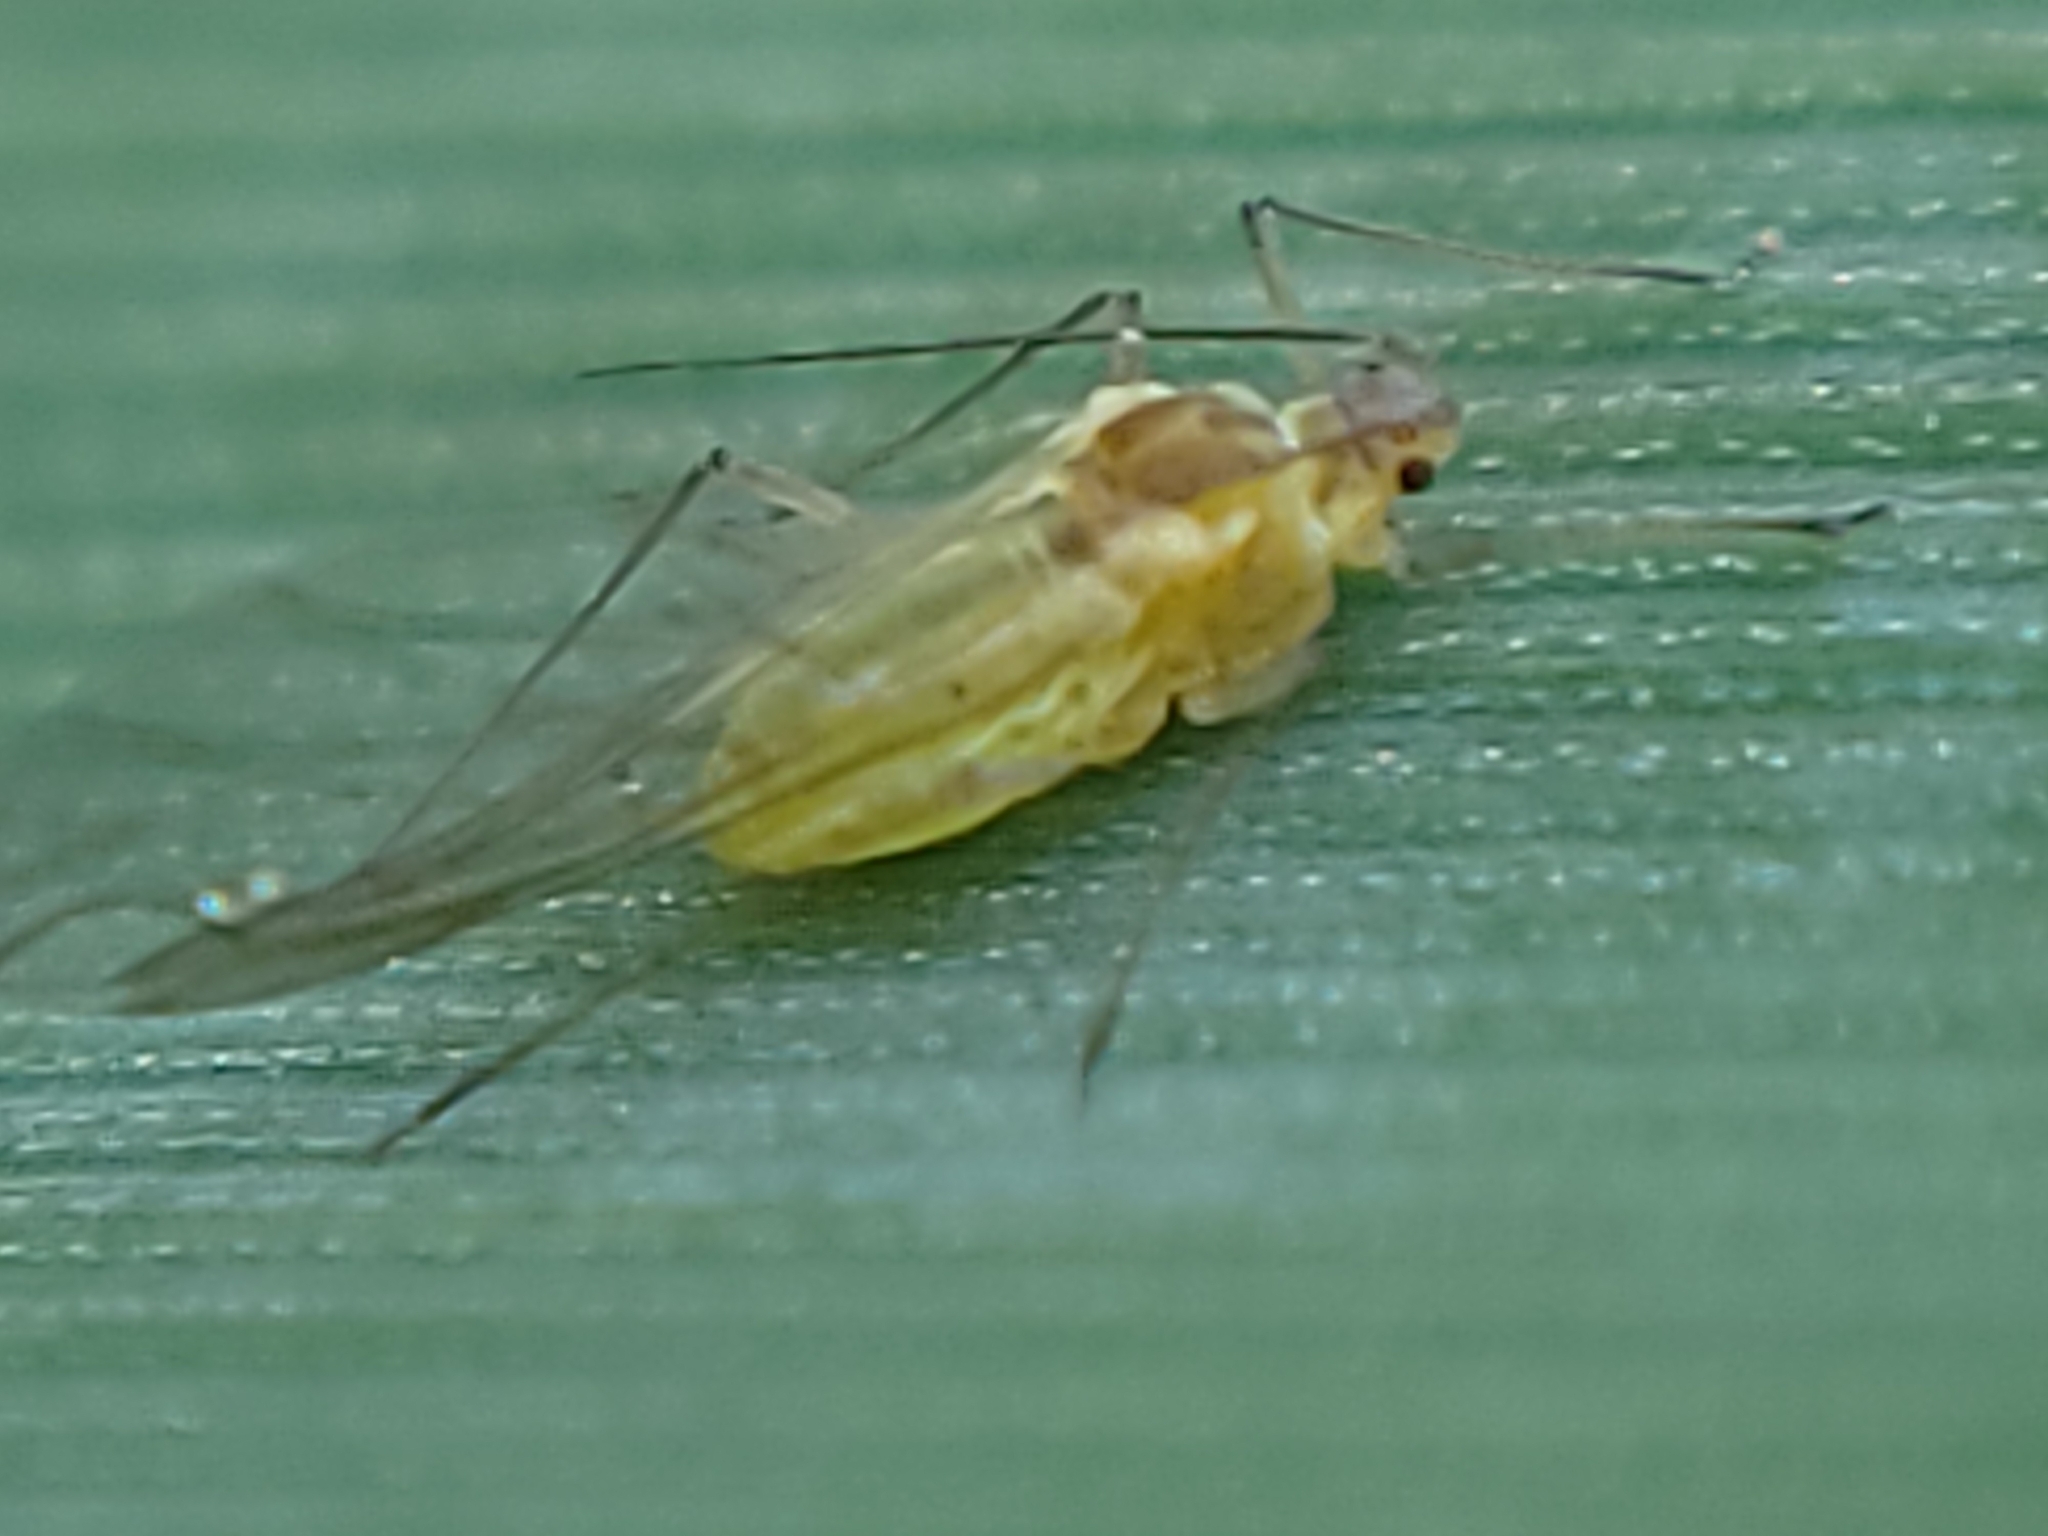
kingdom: Animalia
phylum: Arthropoda
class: Insecta
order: Hemiptera
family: Aphididae
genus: Metopolophium
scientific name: Metopolophium dirhodum
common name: Rose-grass aphid
